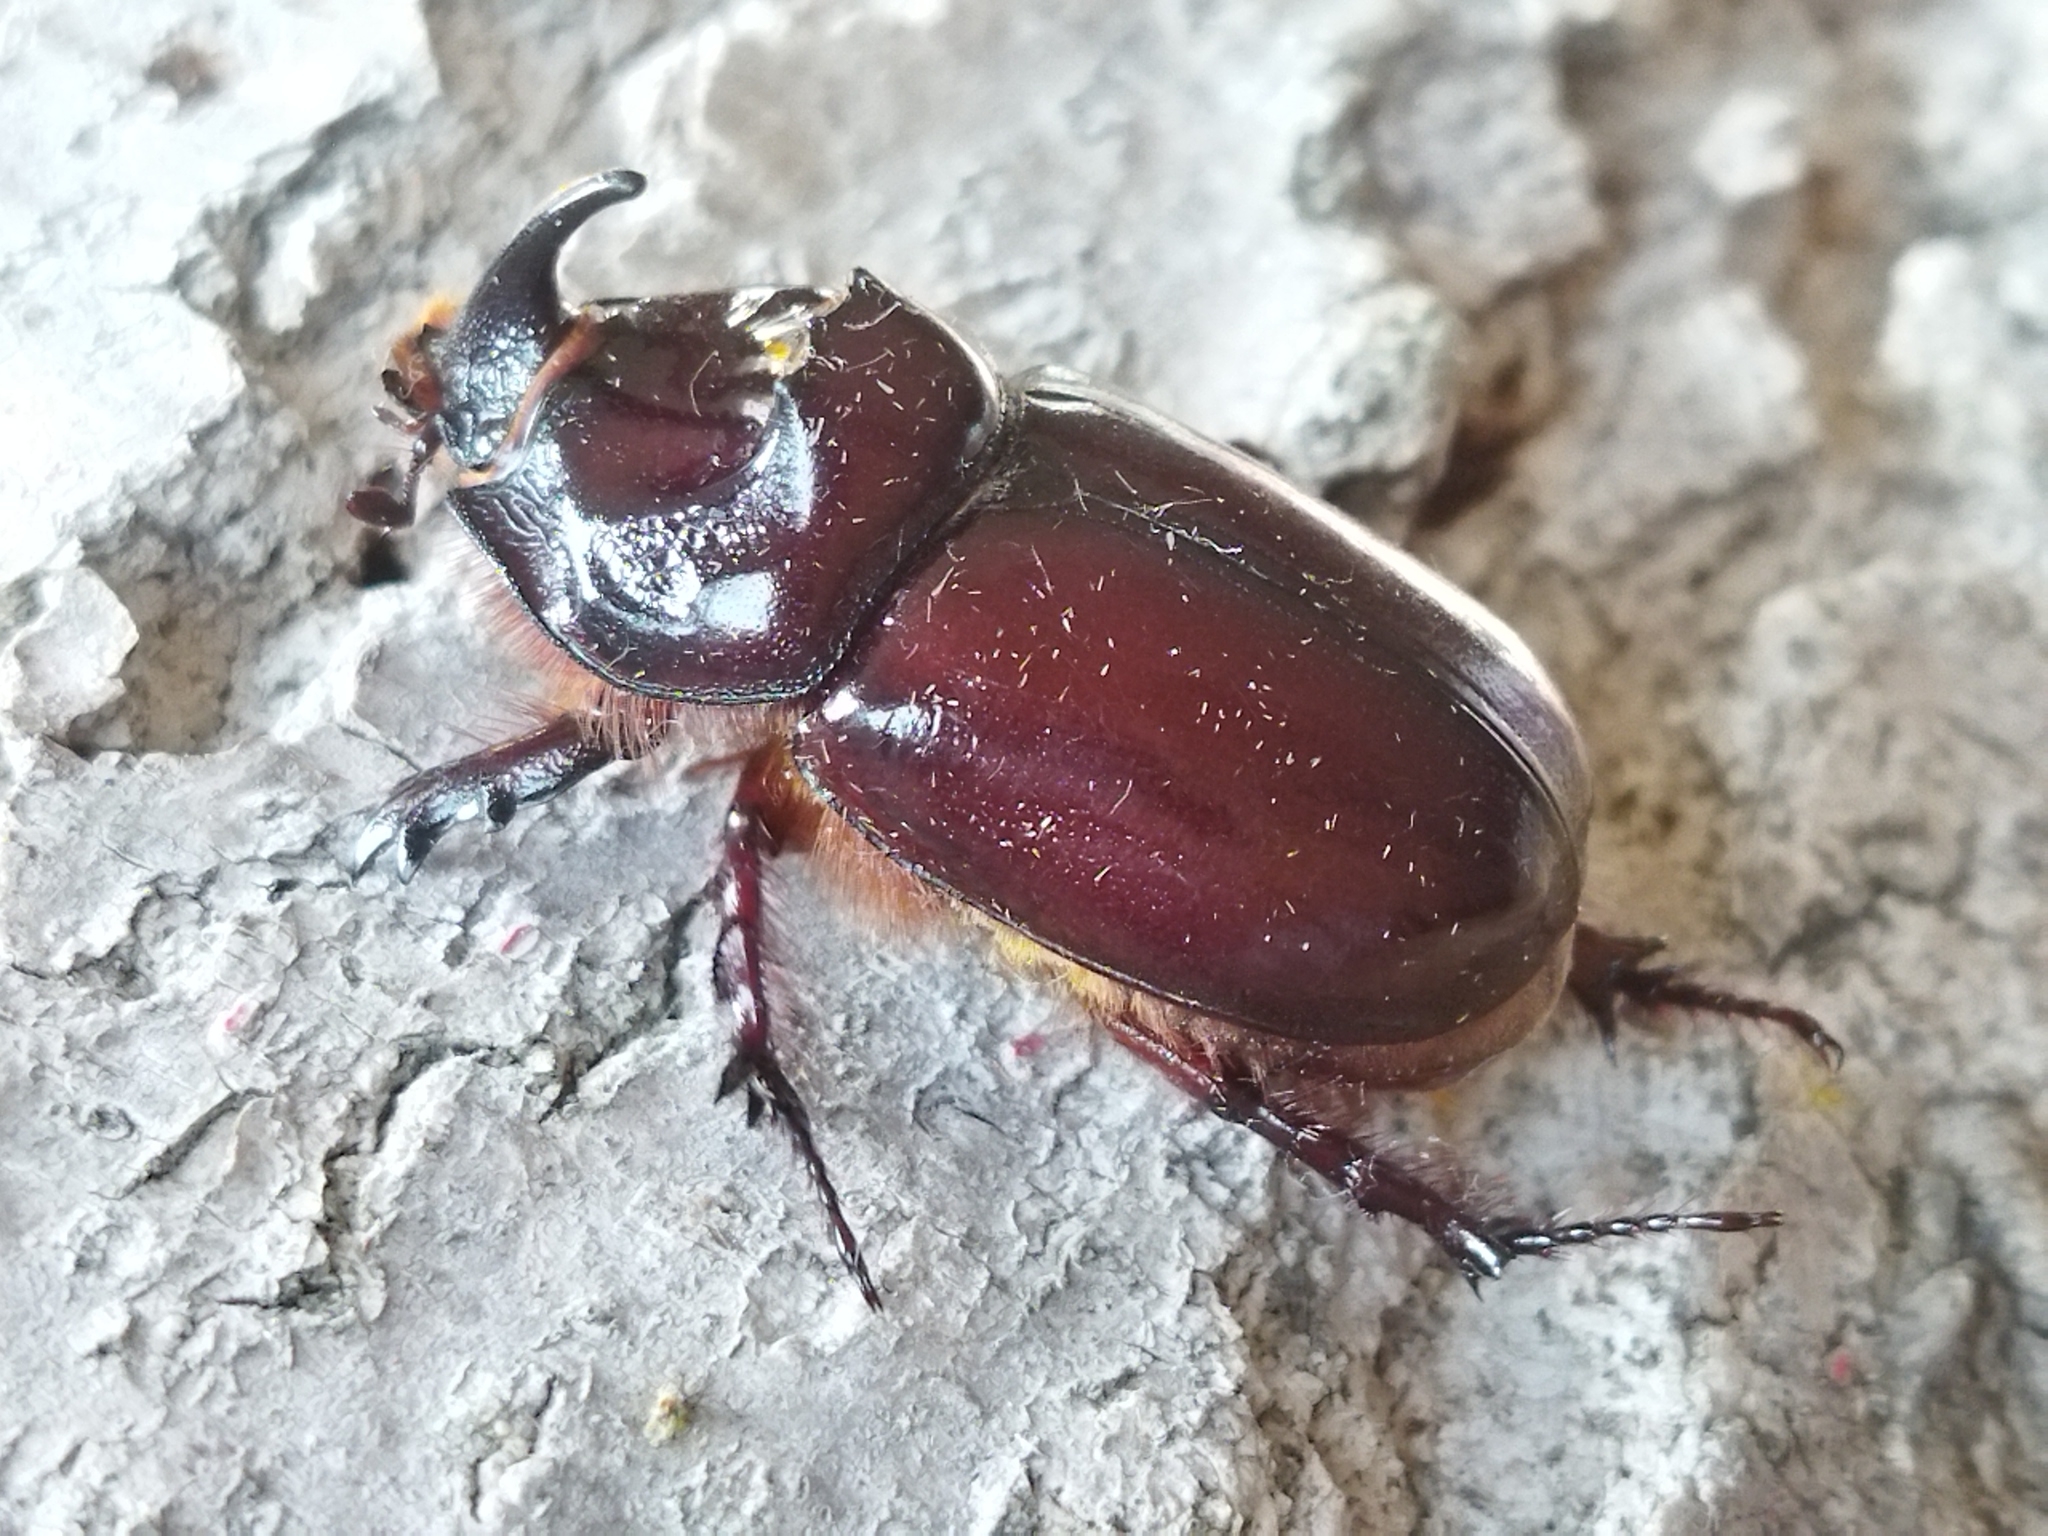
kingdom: Animalia
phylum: Arthropoda
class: Insecta
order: Coleoptera
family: Scarabaeidae
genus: Oryctes
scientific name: Oryctes nasicornis
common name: European rhinoceros beetle
